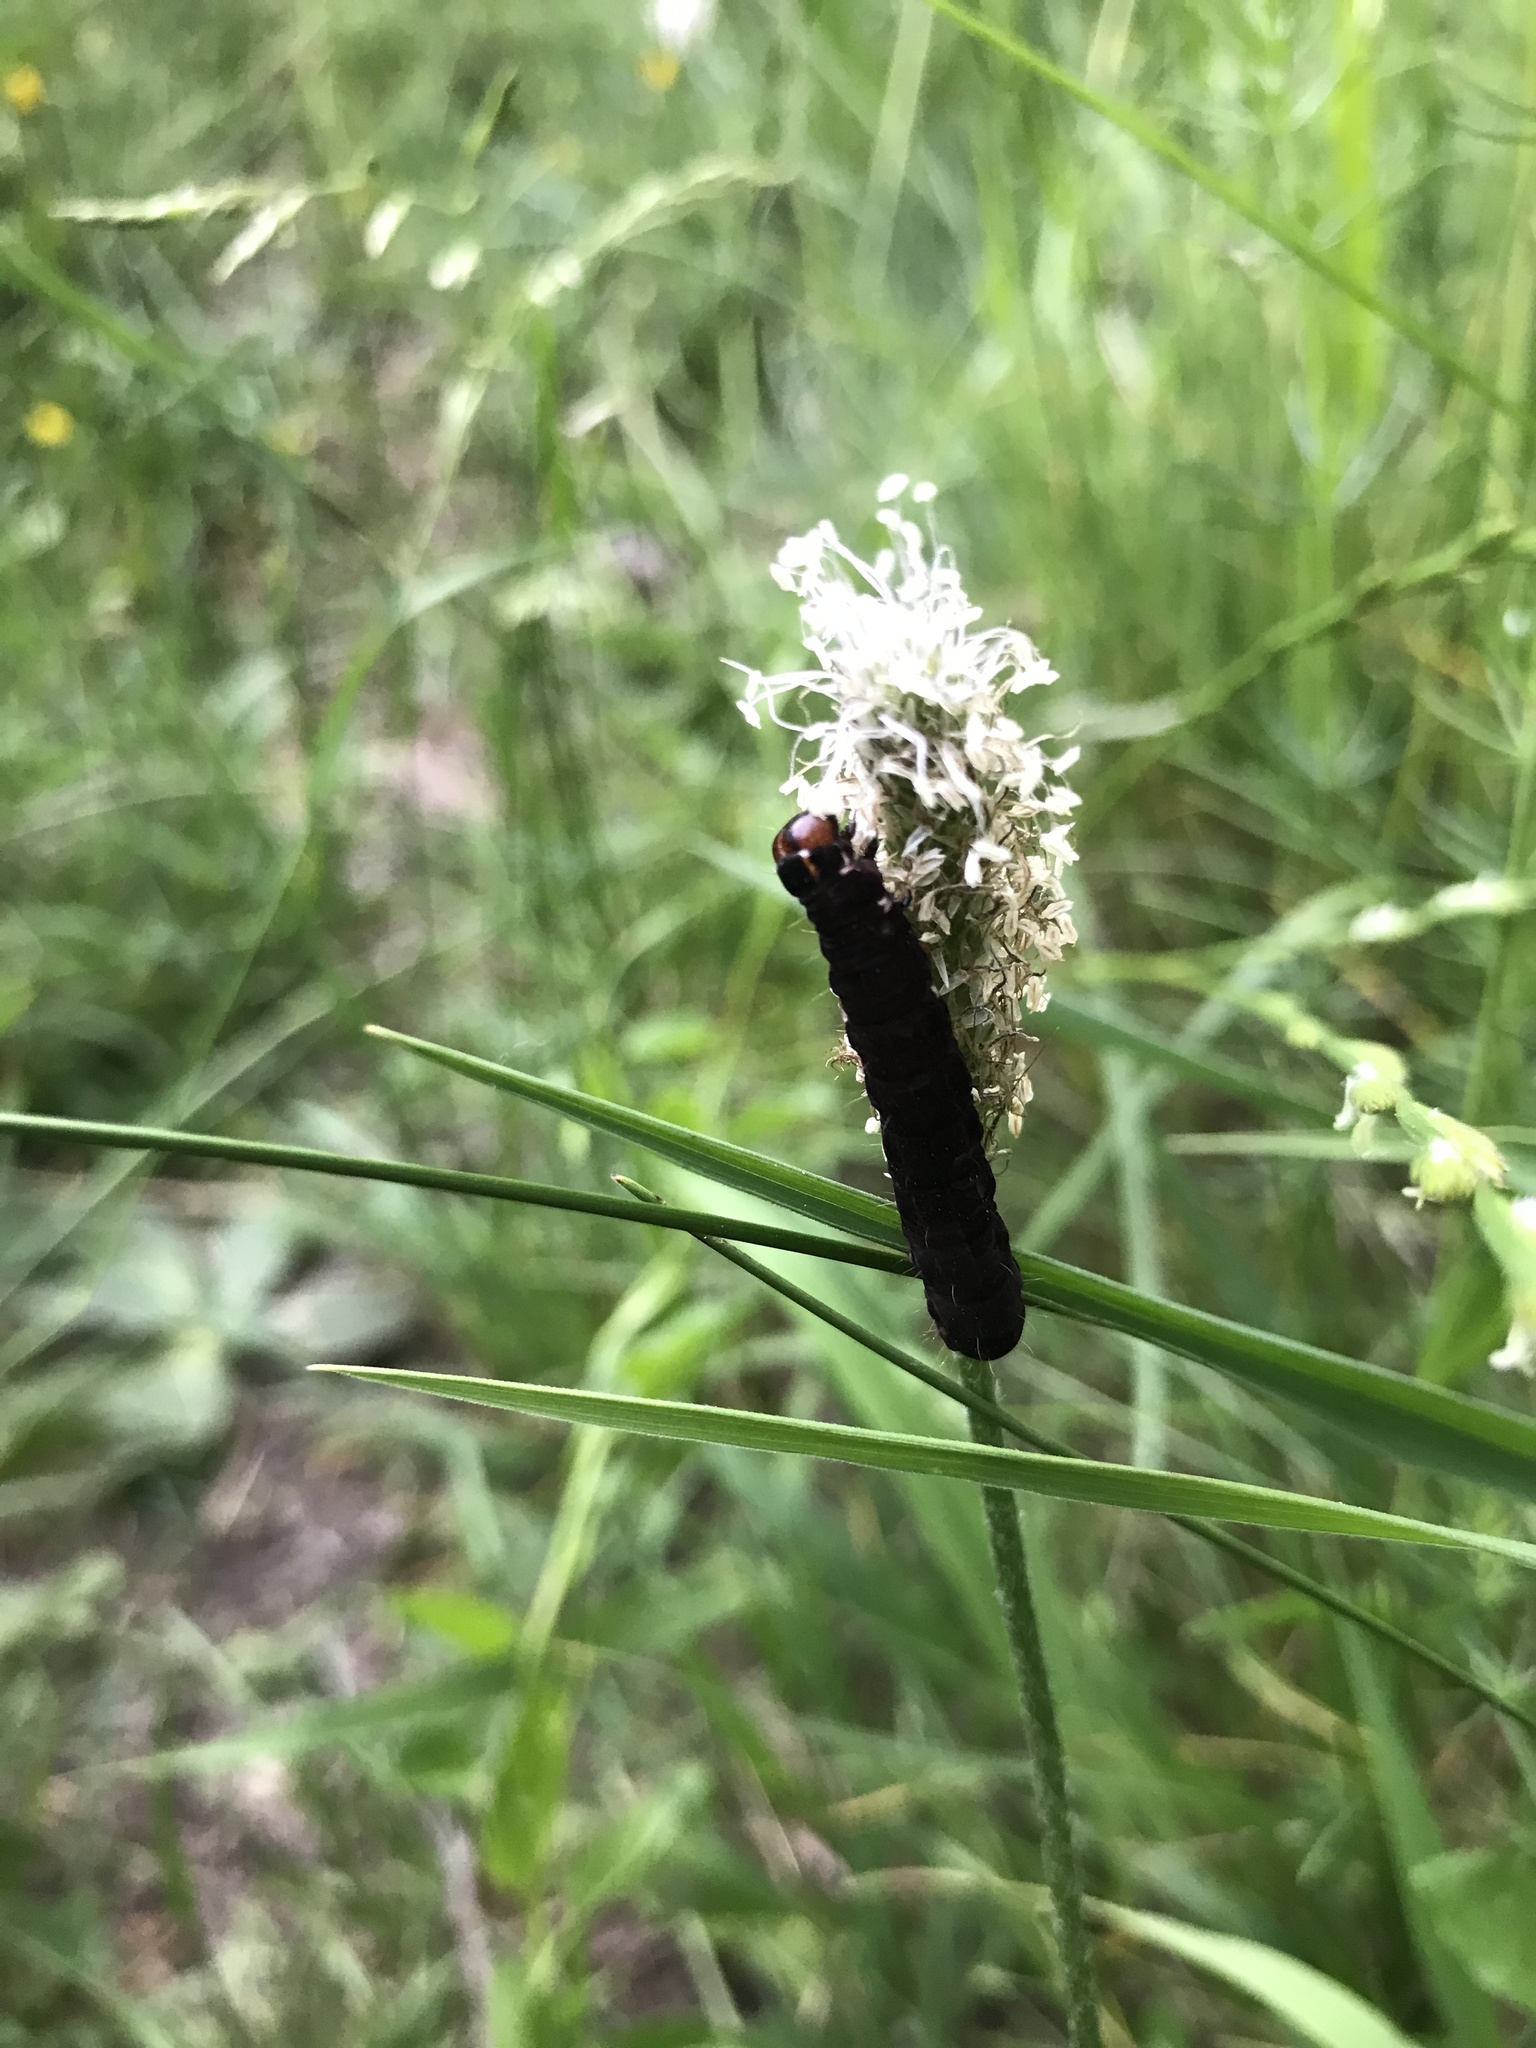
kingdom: Animalia
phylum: Arthropoda
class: Insecta
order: Lepidoptera
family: Noctuidae
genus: Eupsilia
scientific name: Eupsilia transversa
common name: Satellite
